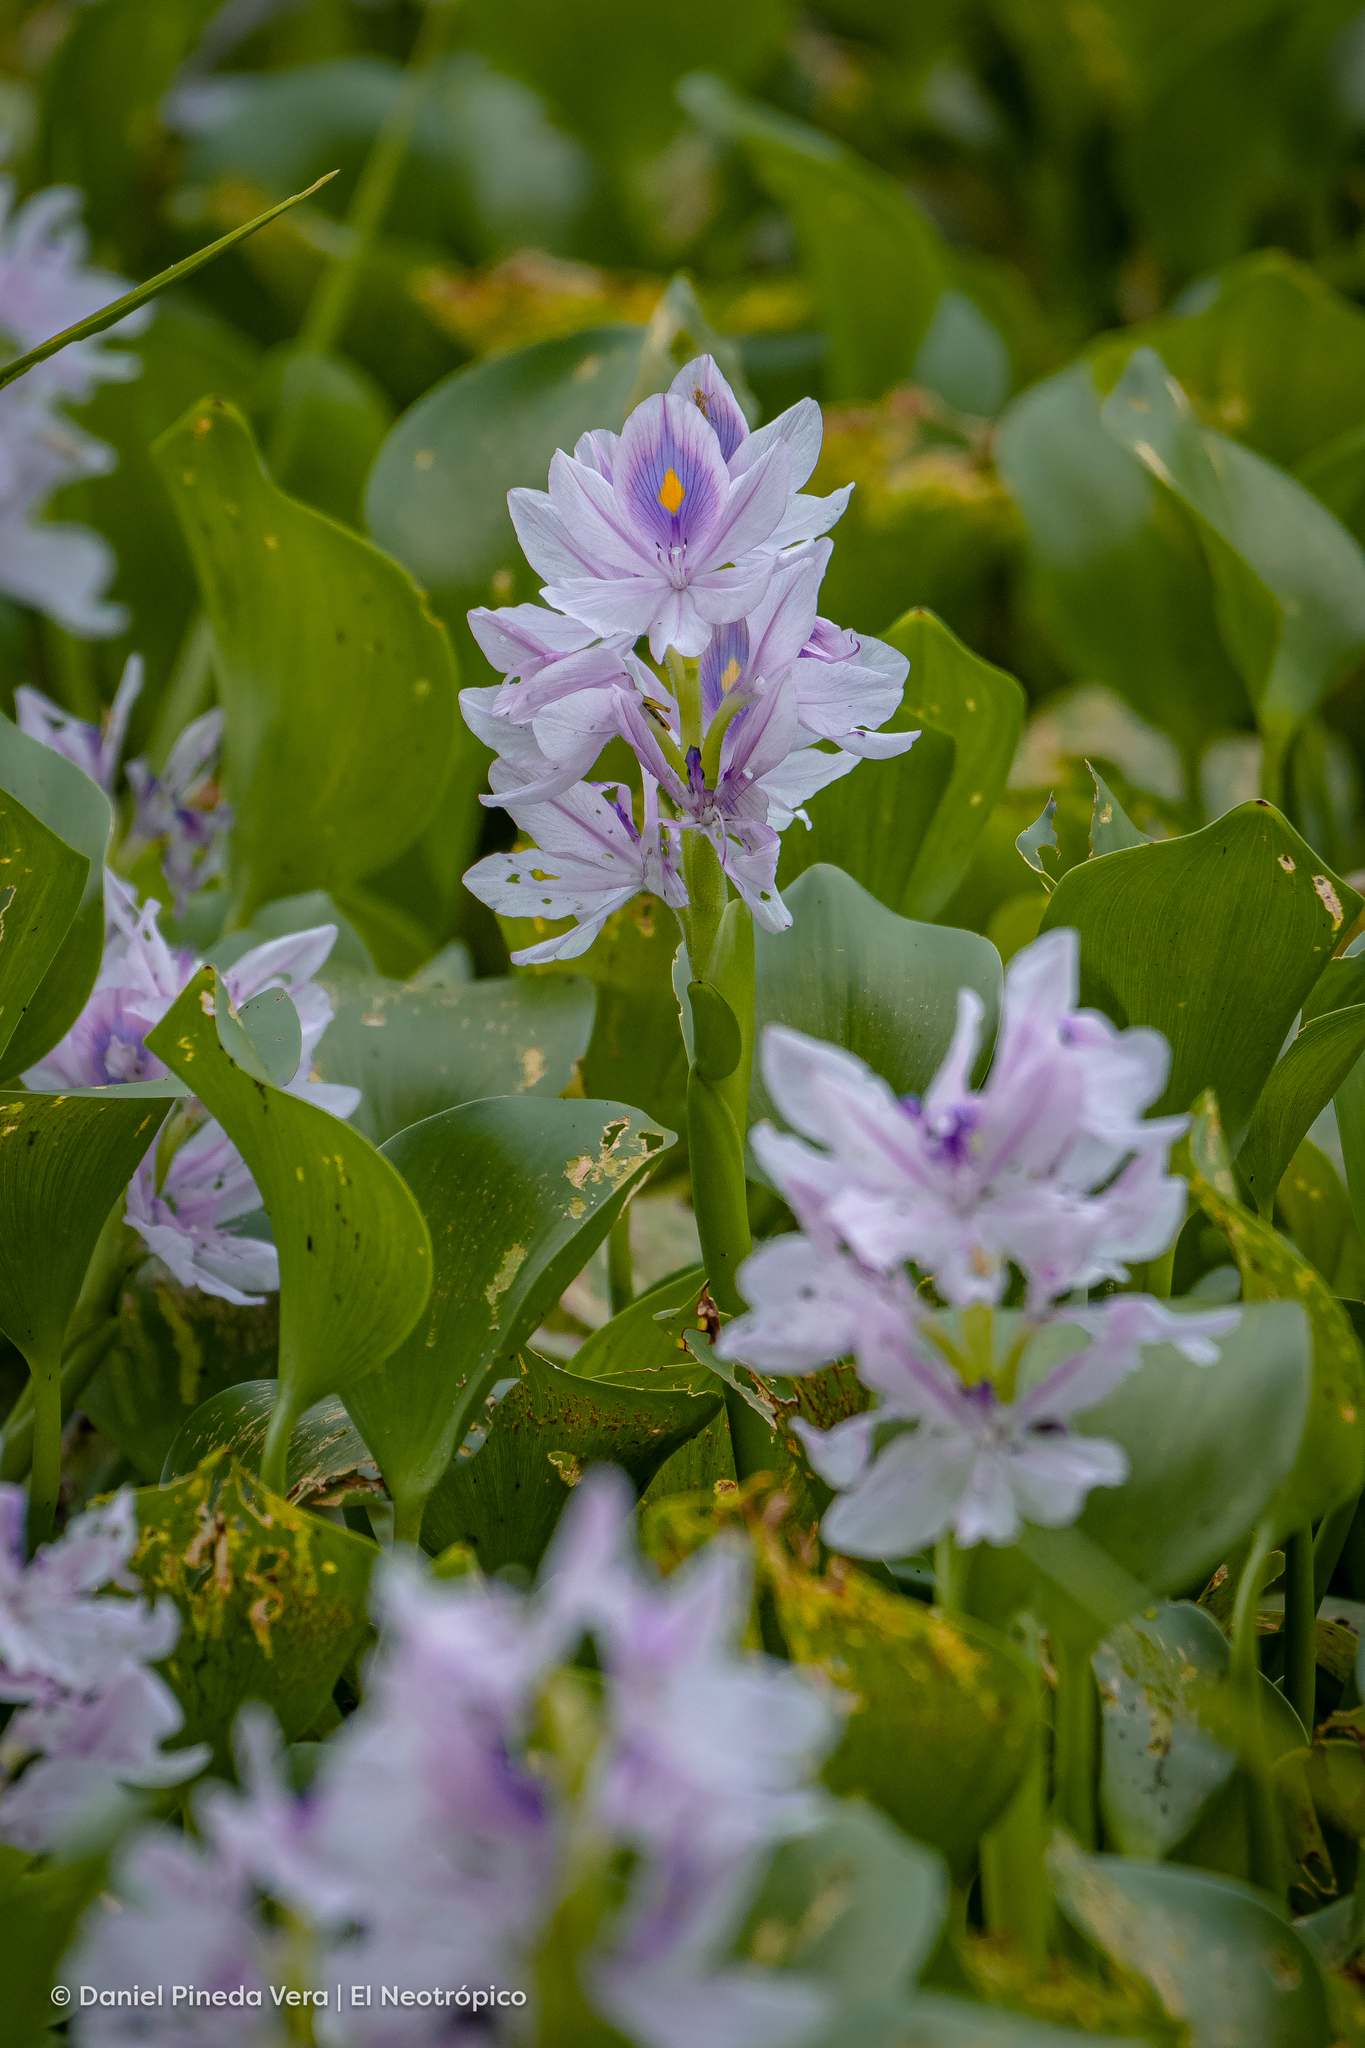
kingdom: Plantae
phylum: Tracheophyta
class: Liliopsida
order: Commelinales
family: Pontederiaceae
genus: Pontederia
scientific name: Pontederia crassipes
